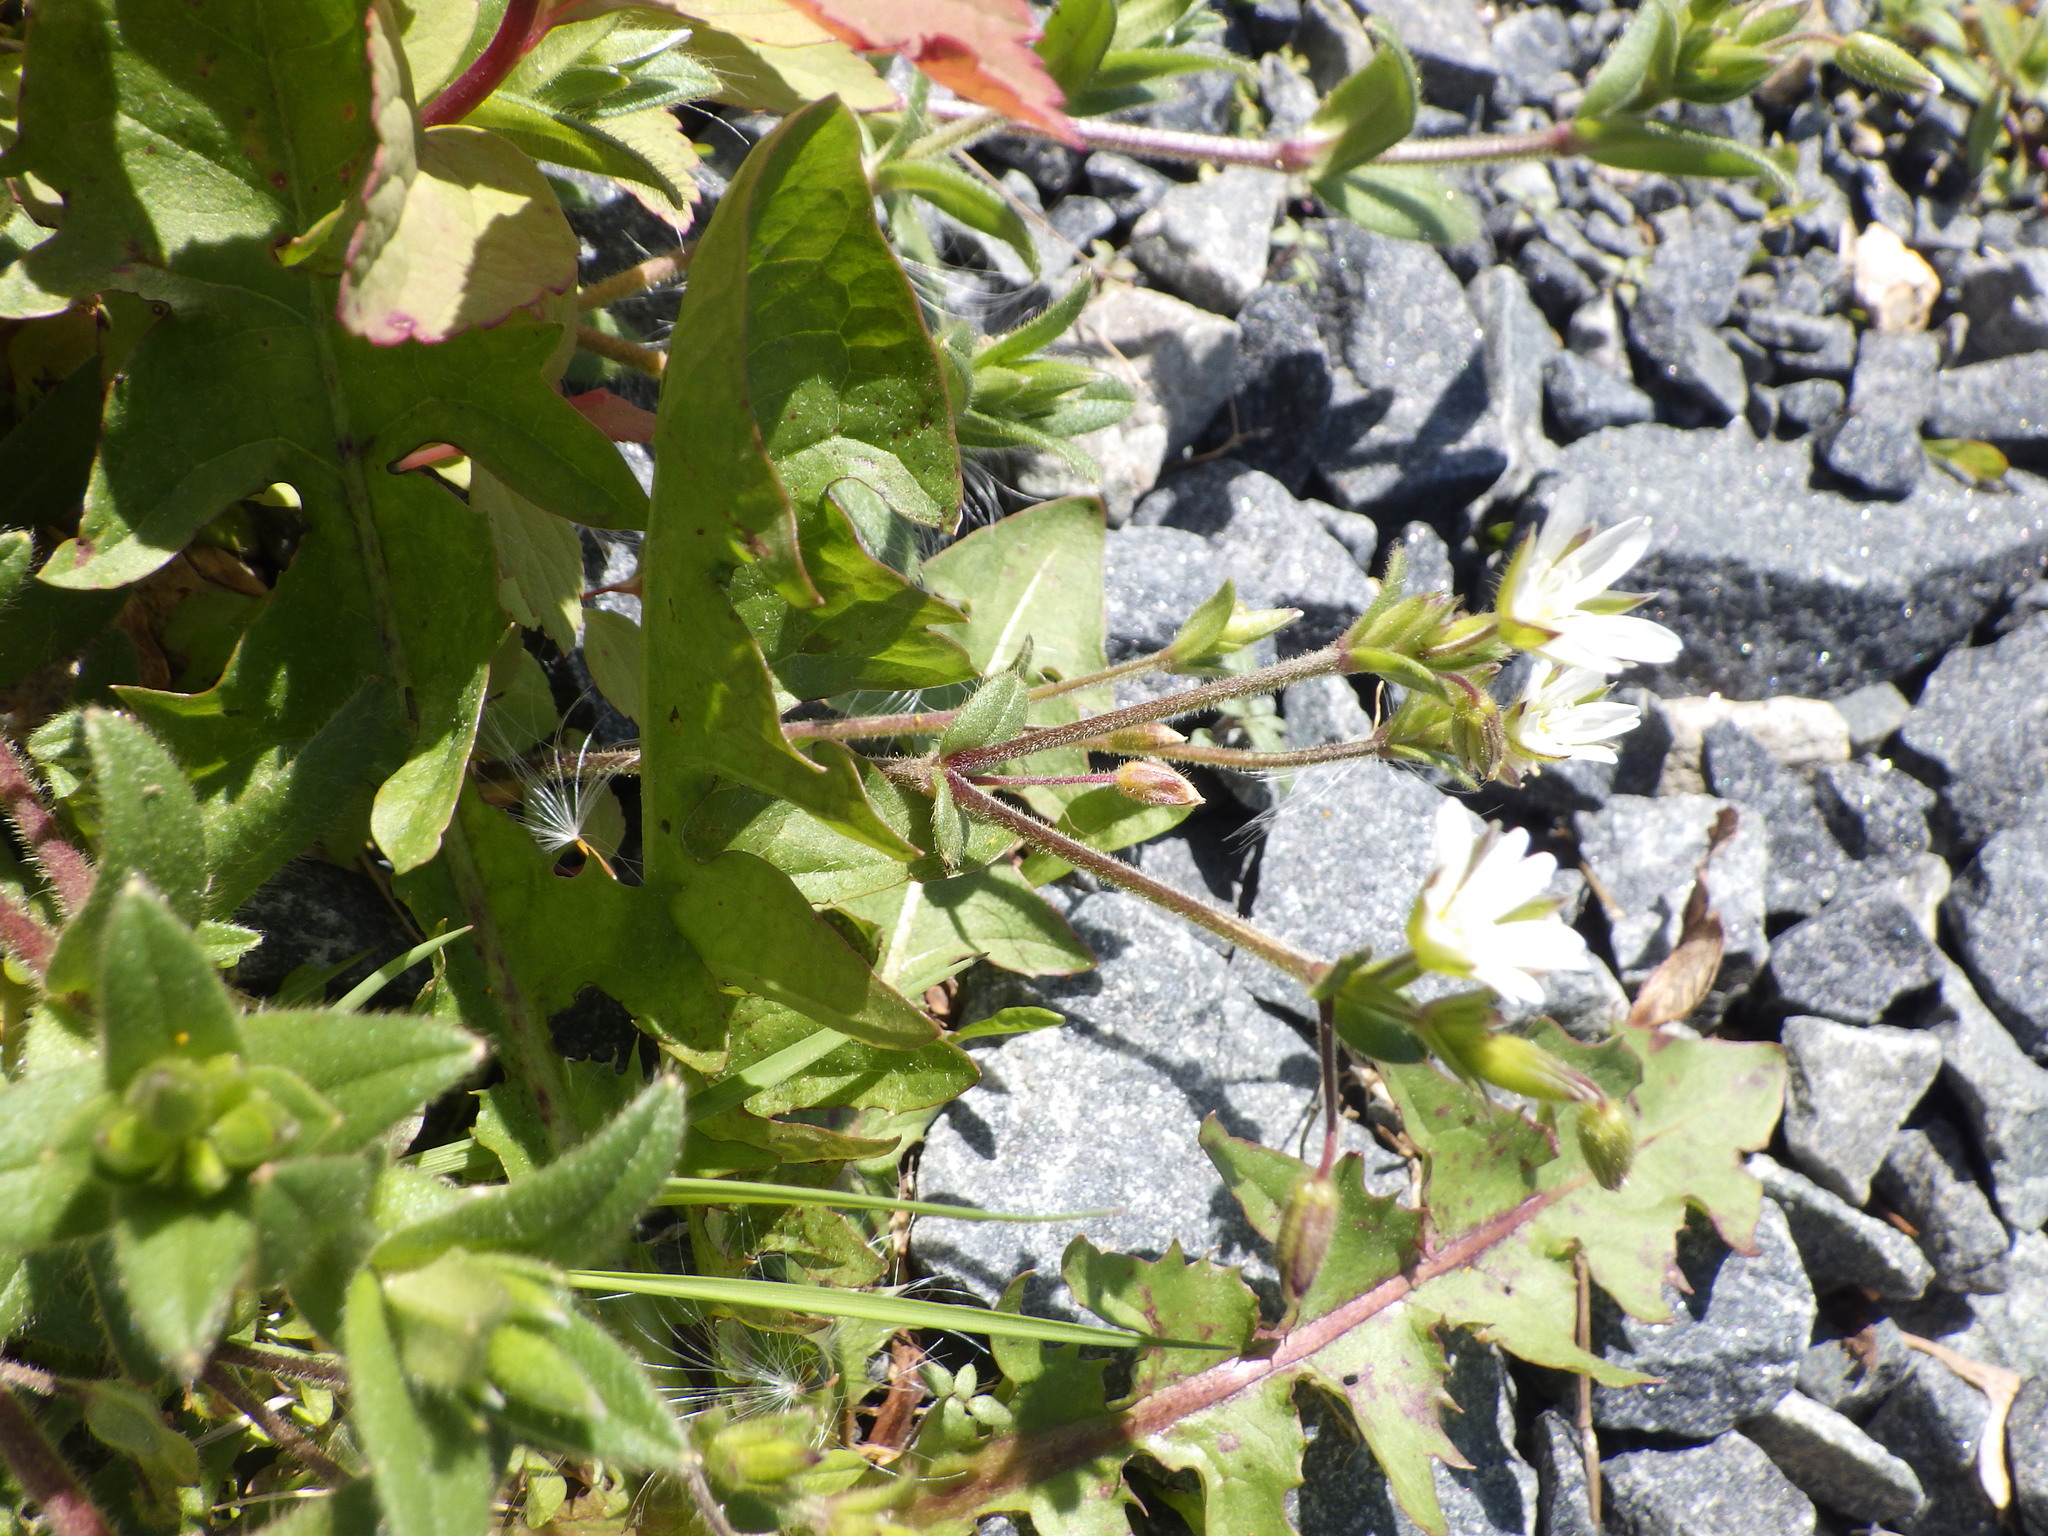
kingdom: Plantae
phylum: Tracheophyta
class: Magnoliopsida
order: Caryophyllales
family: Caryophyllaceae
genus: Cerastium
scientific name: Cerastium fontanum
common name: Common mouse-ear
